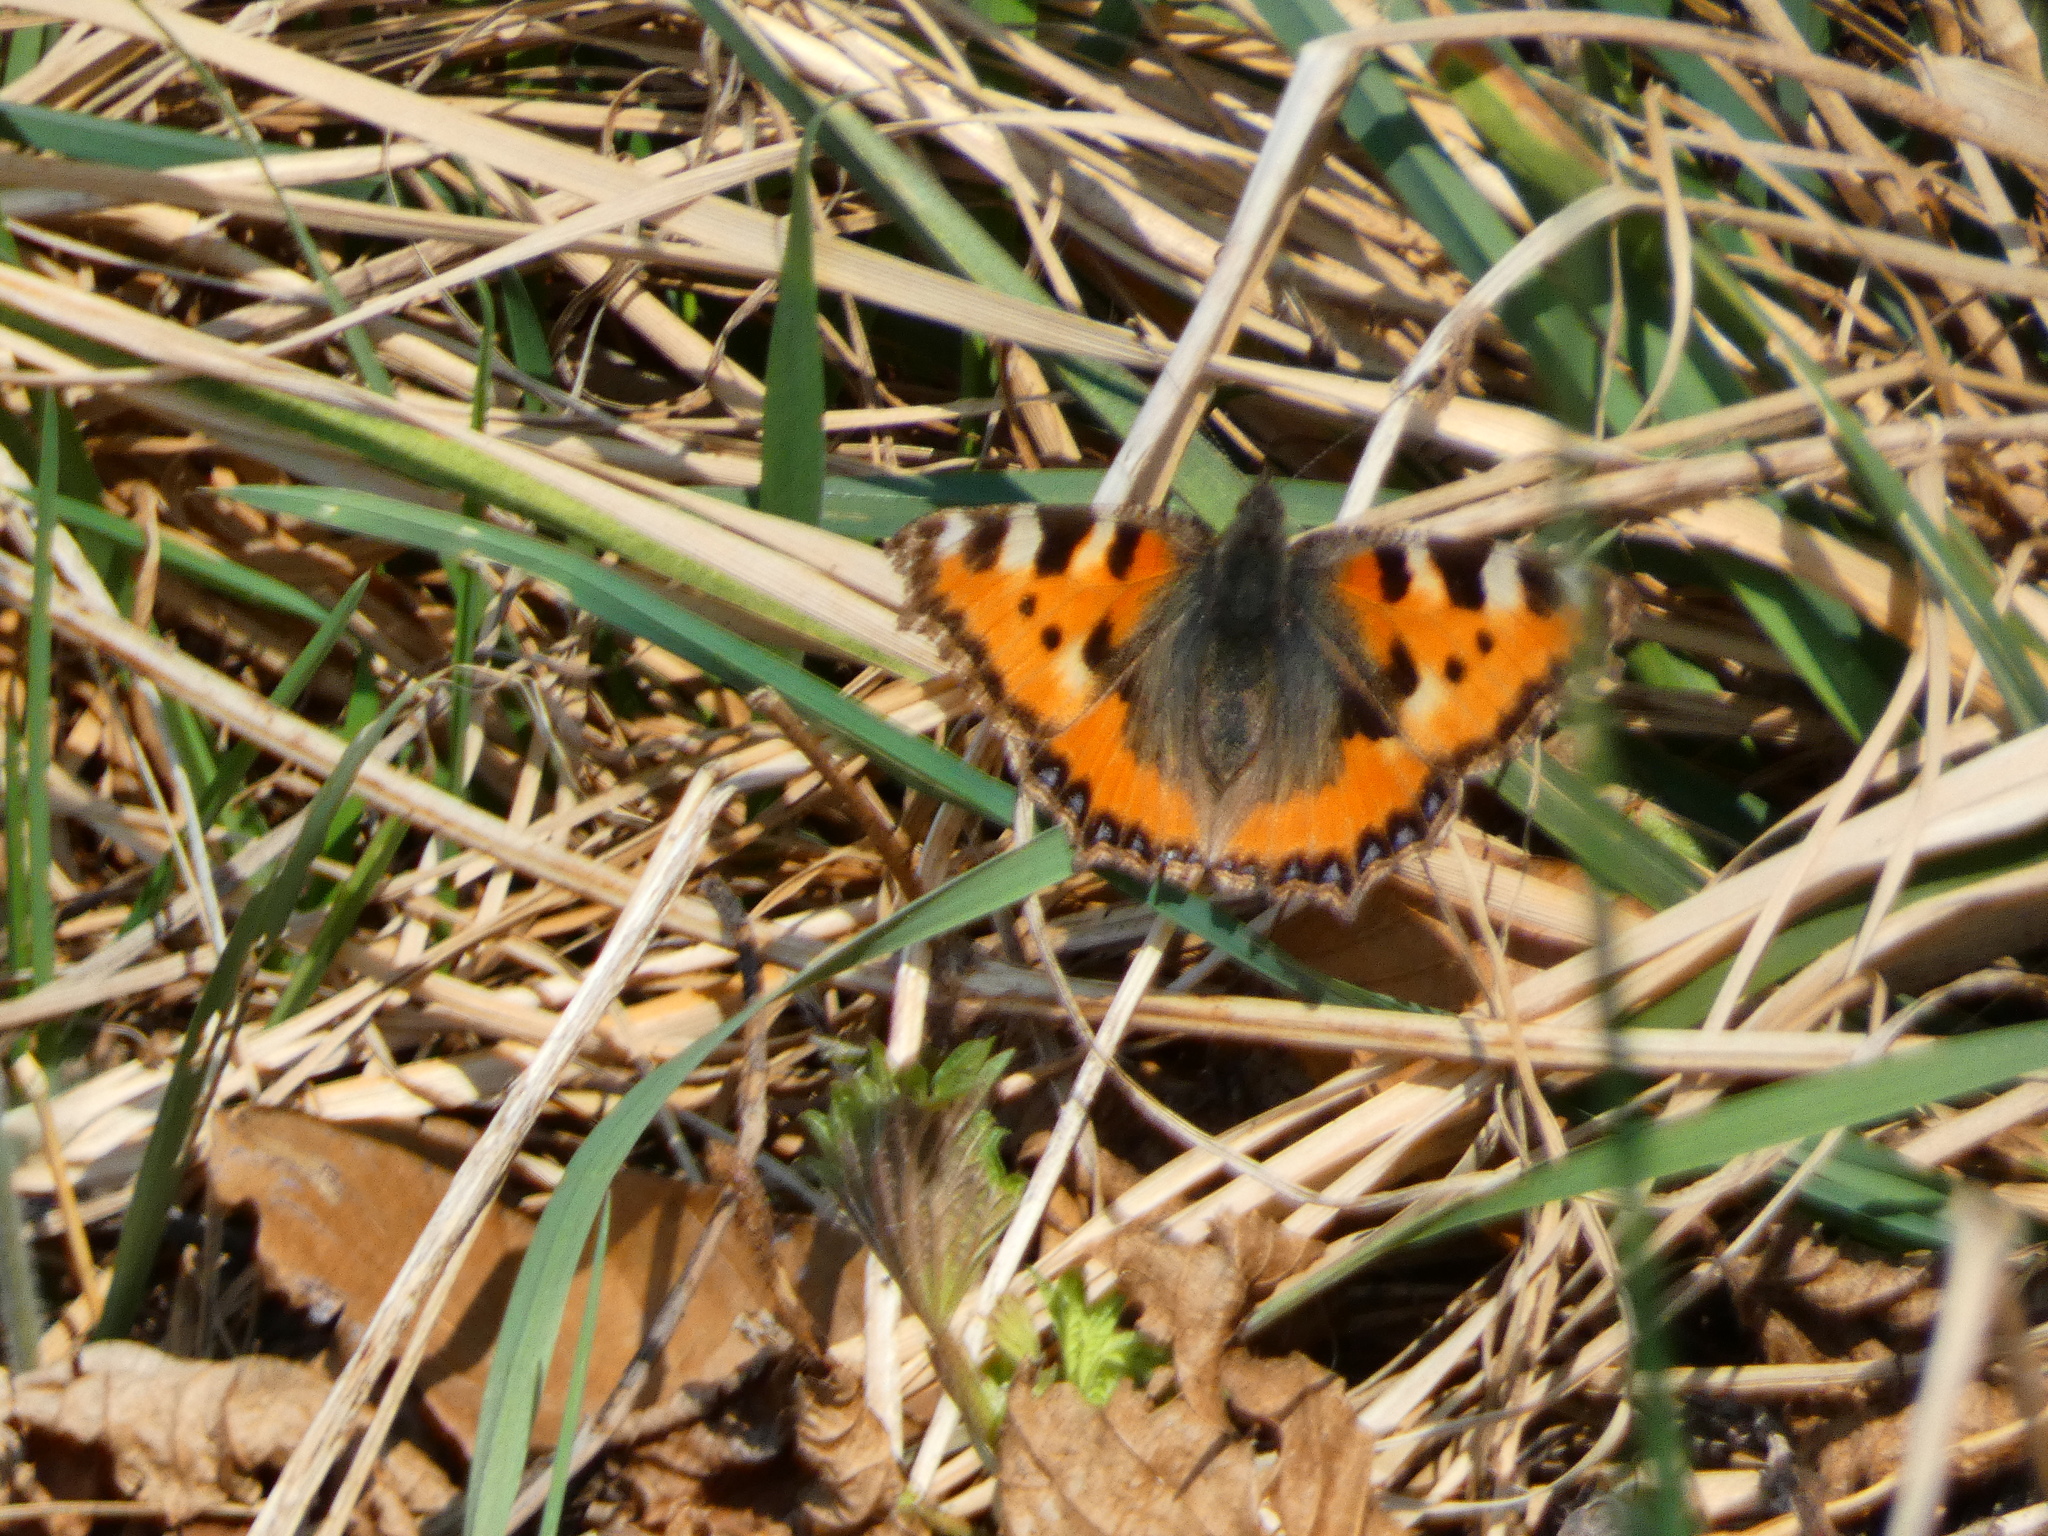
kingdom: Animalia
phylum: Arthropoda
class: Insecta
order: Lepidoptera
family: Nymphalidae
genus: Aglais
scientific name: Aglais urticae
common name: Small tortoiseshell
